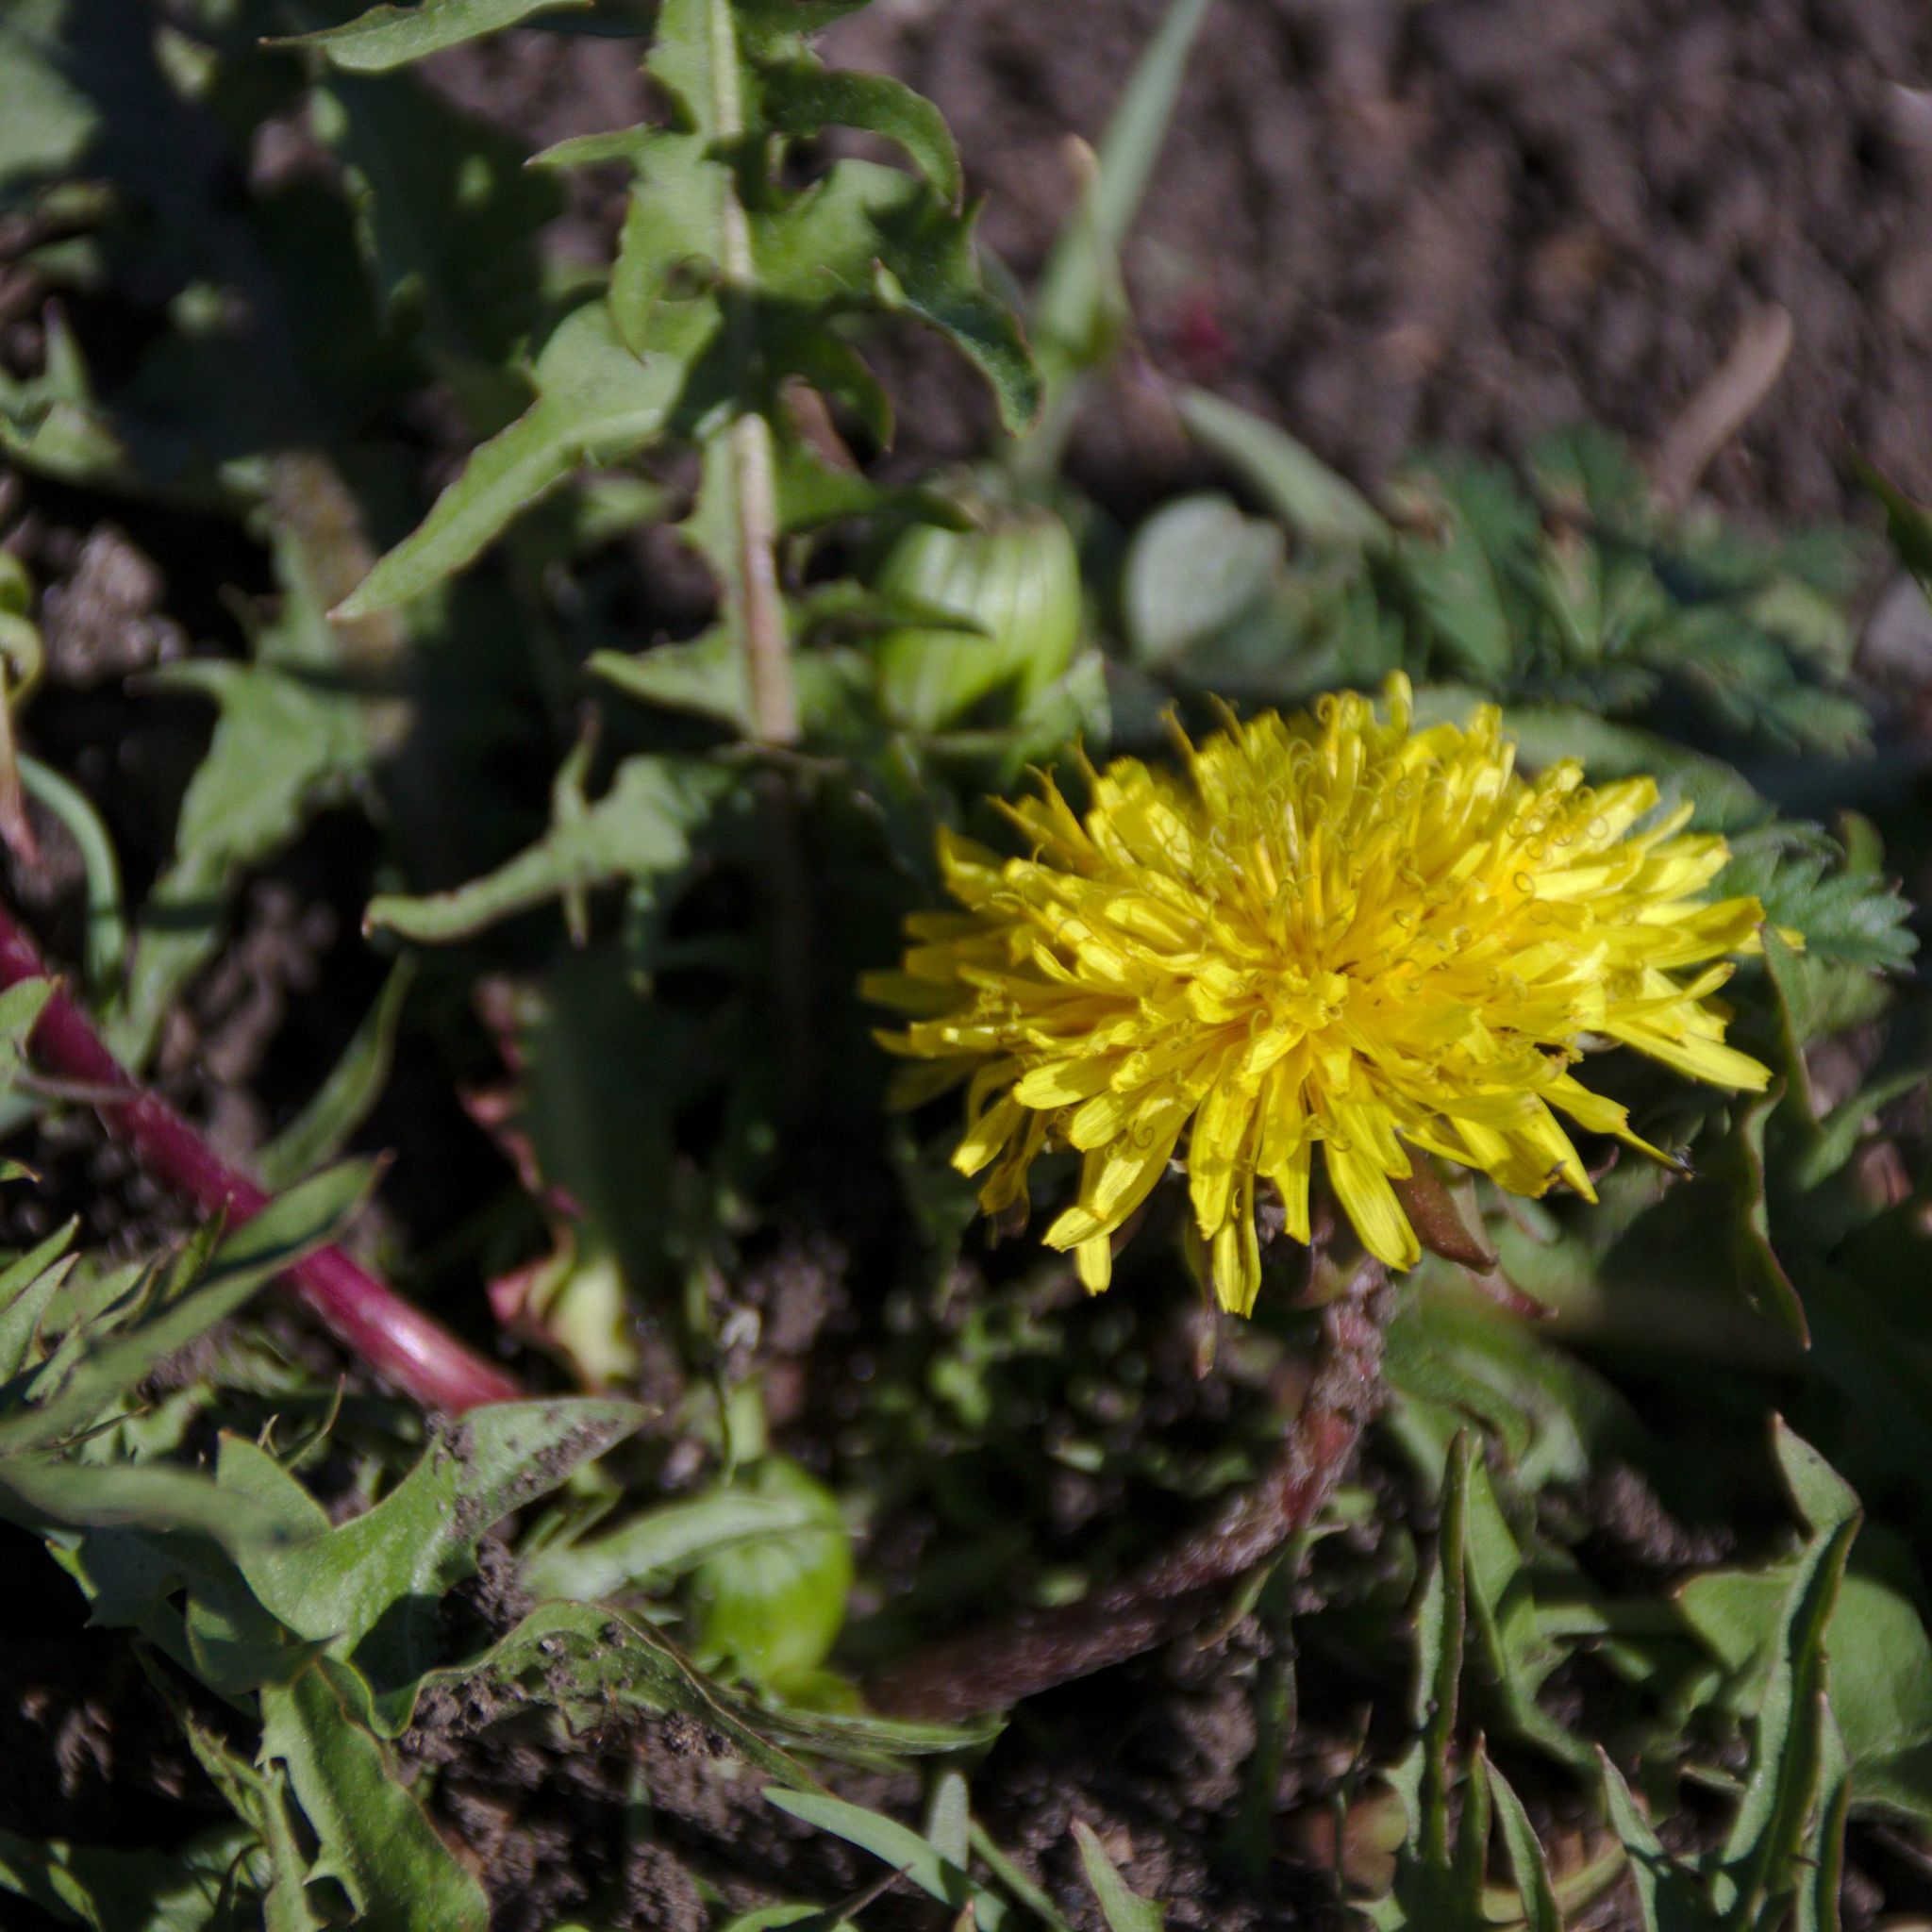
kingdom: Plantae
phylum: Tracheophyta
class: Magnoliopsida
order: Asterales
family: Asteraceae
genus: Taraxacum
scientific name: Taraxacum officinale
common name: Common dandelion
